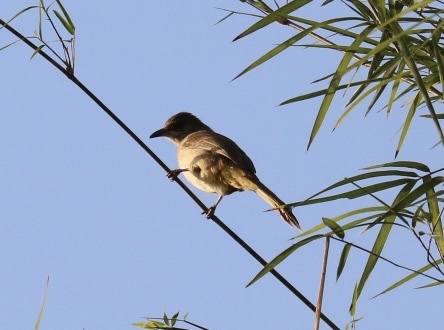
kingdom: Animalia
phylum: Chordata
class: Aves
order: Passeriformes
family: Pycnonotidae
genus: Pycnonotus
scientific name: Pycnonotus blanfordi
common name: Streak-eared bulbul
